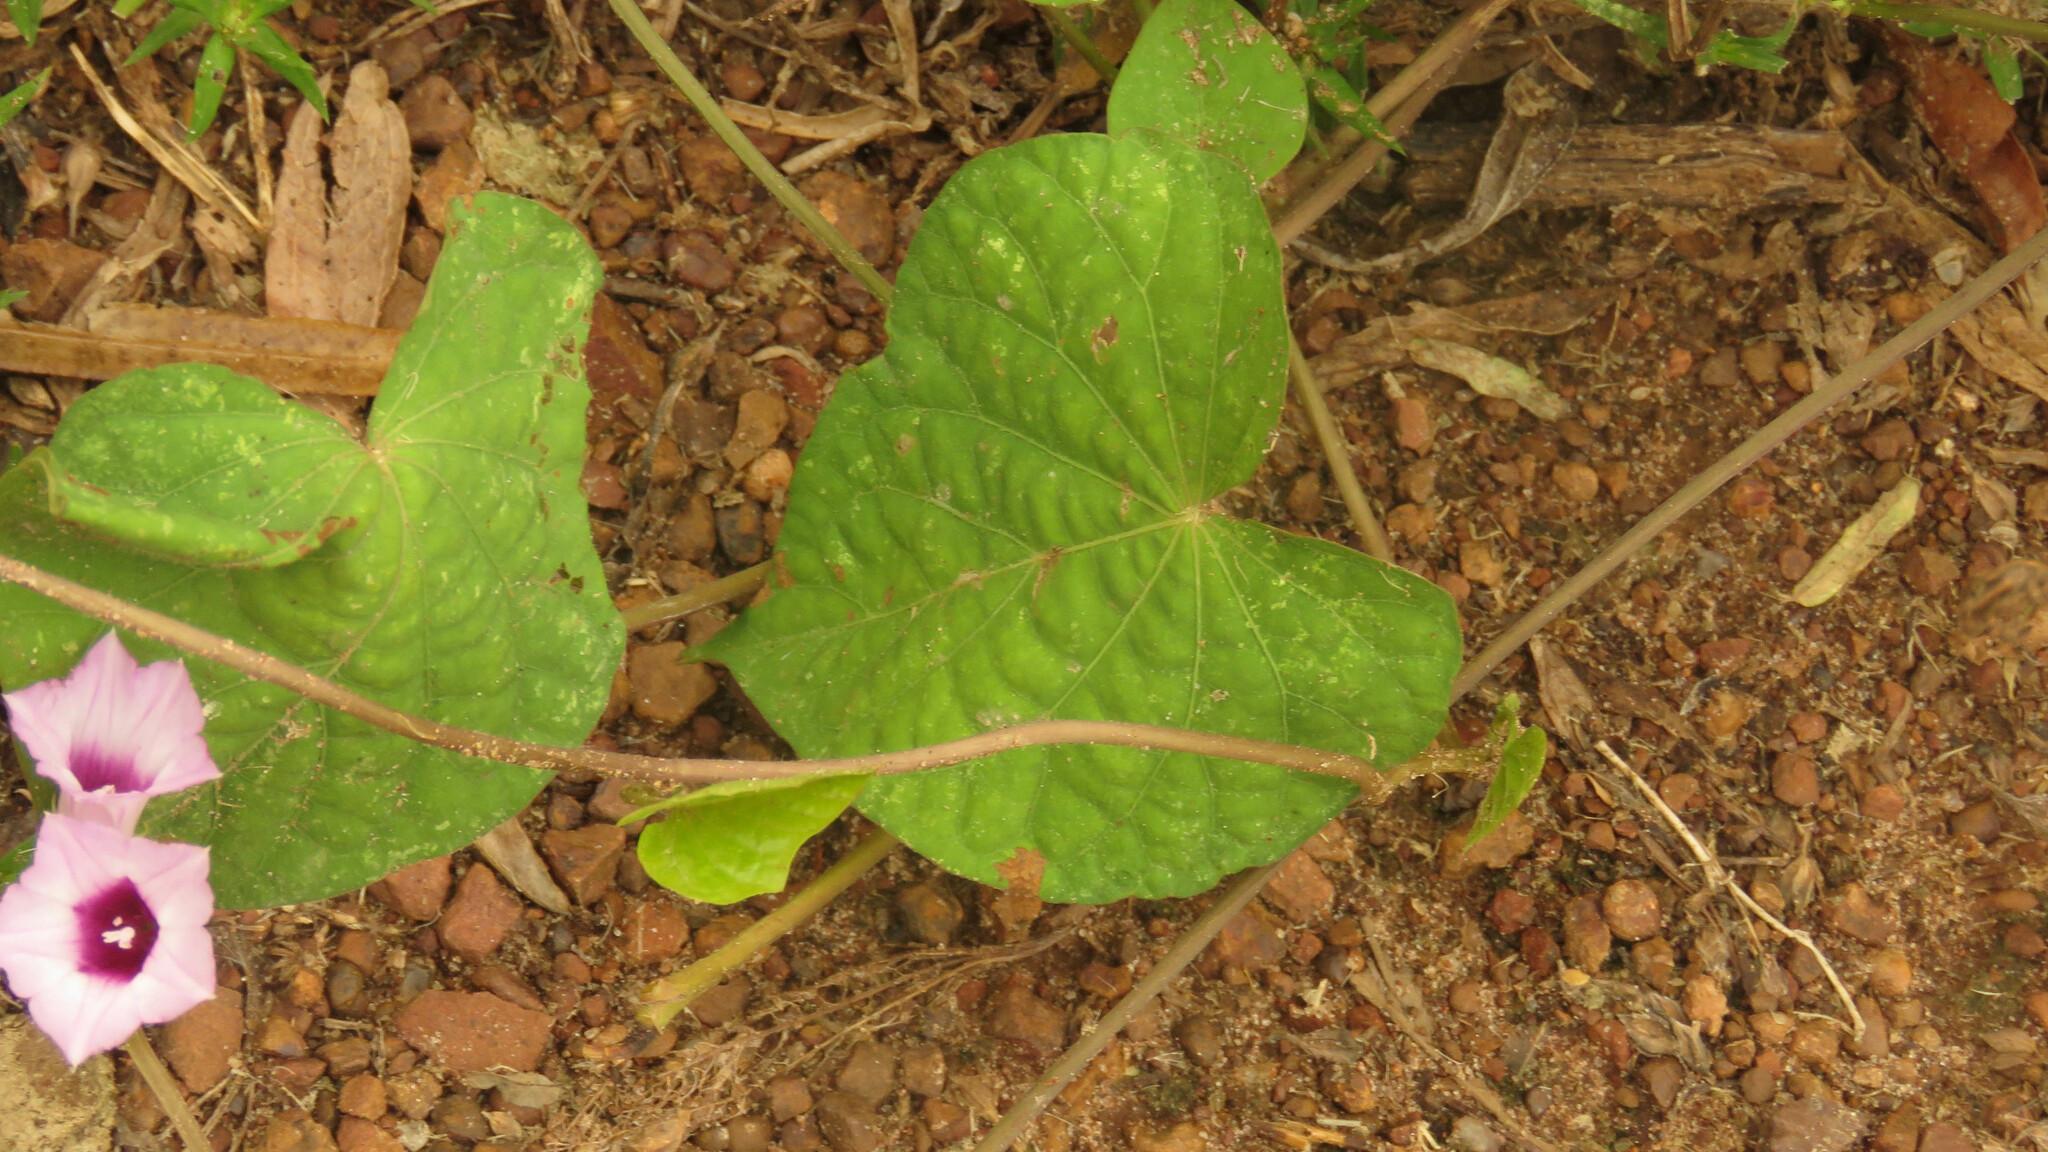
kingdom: Plantae
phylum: Tracheophyta
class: Magnoliopsida
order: Solanales
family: Convolvulaceae
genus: Ipomoea
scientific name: Ipomoea grandifolia
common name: Aiea morning glory
